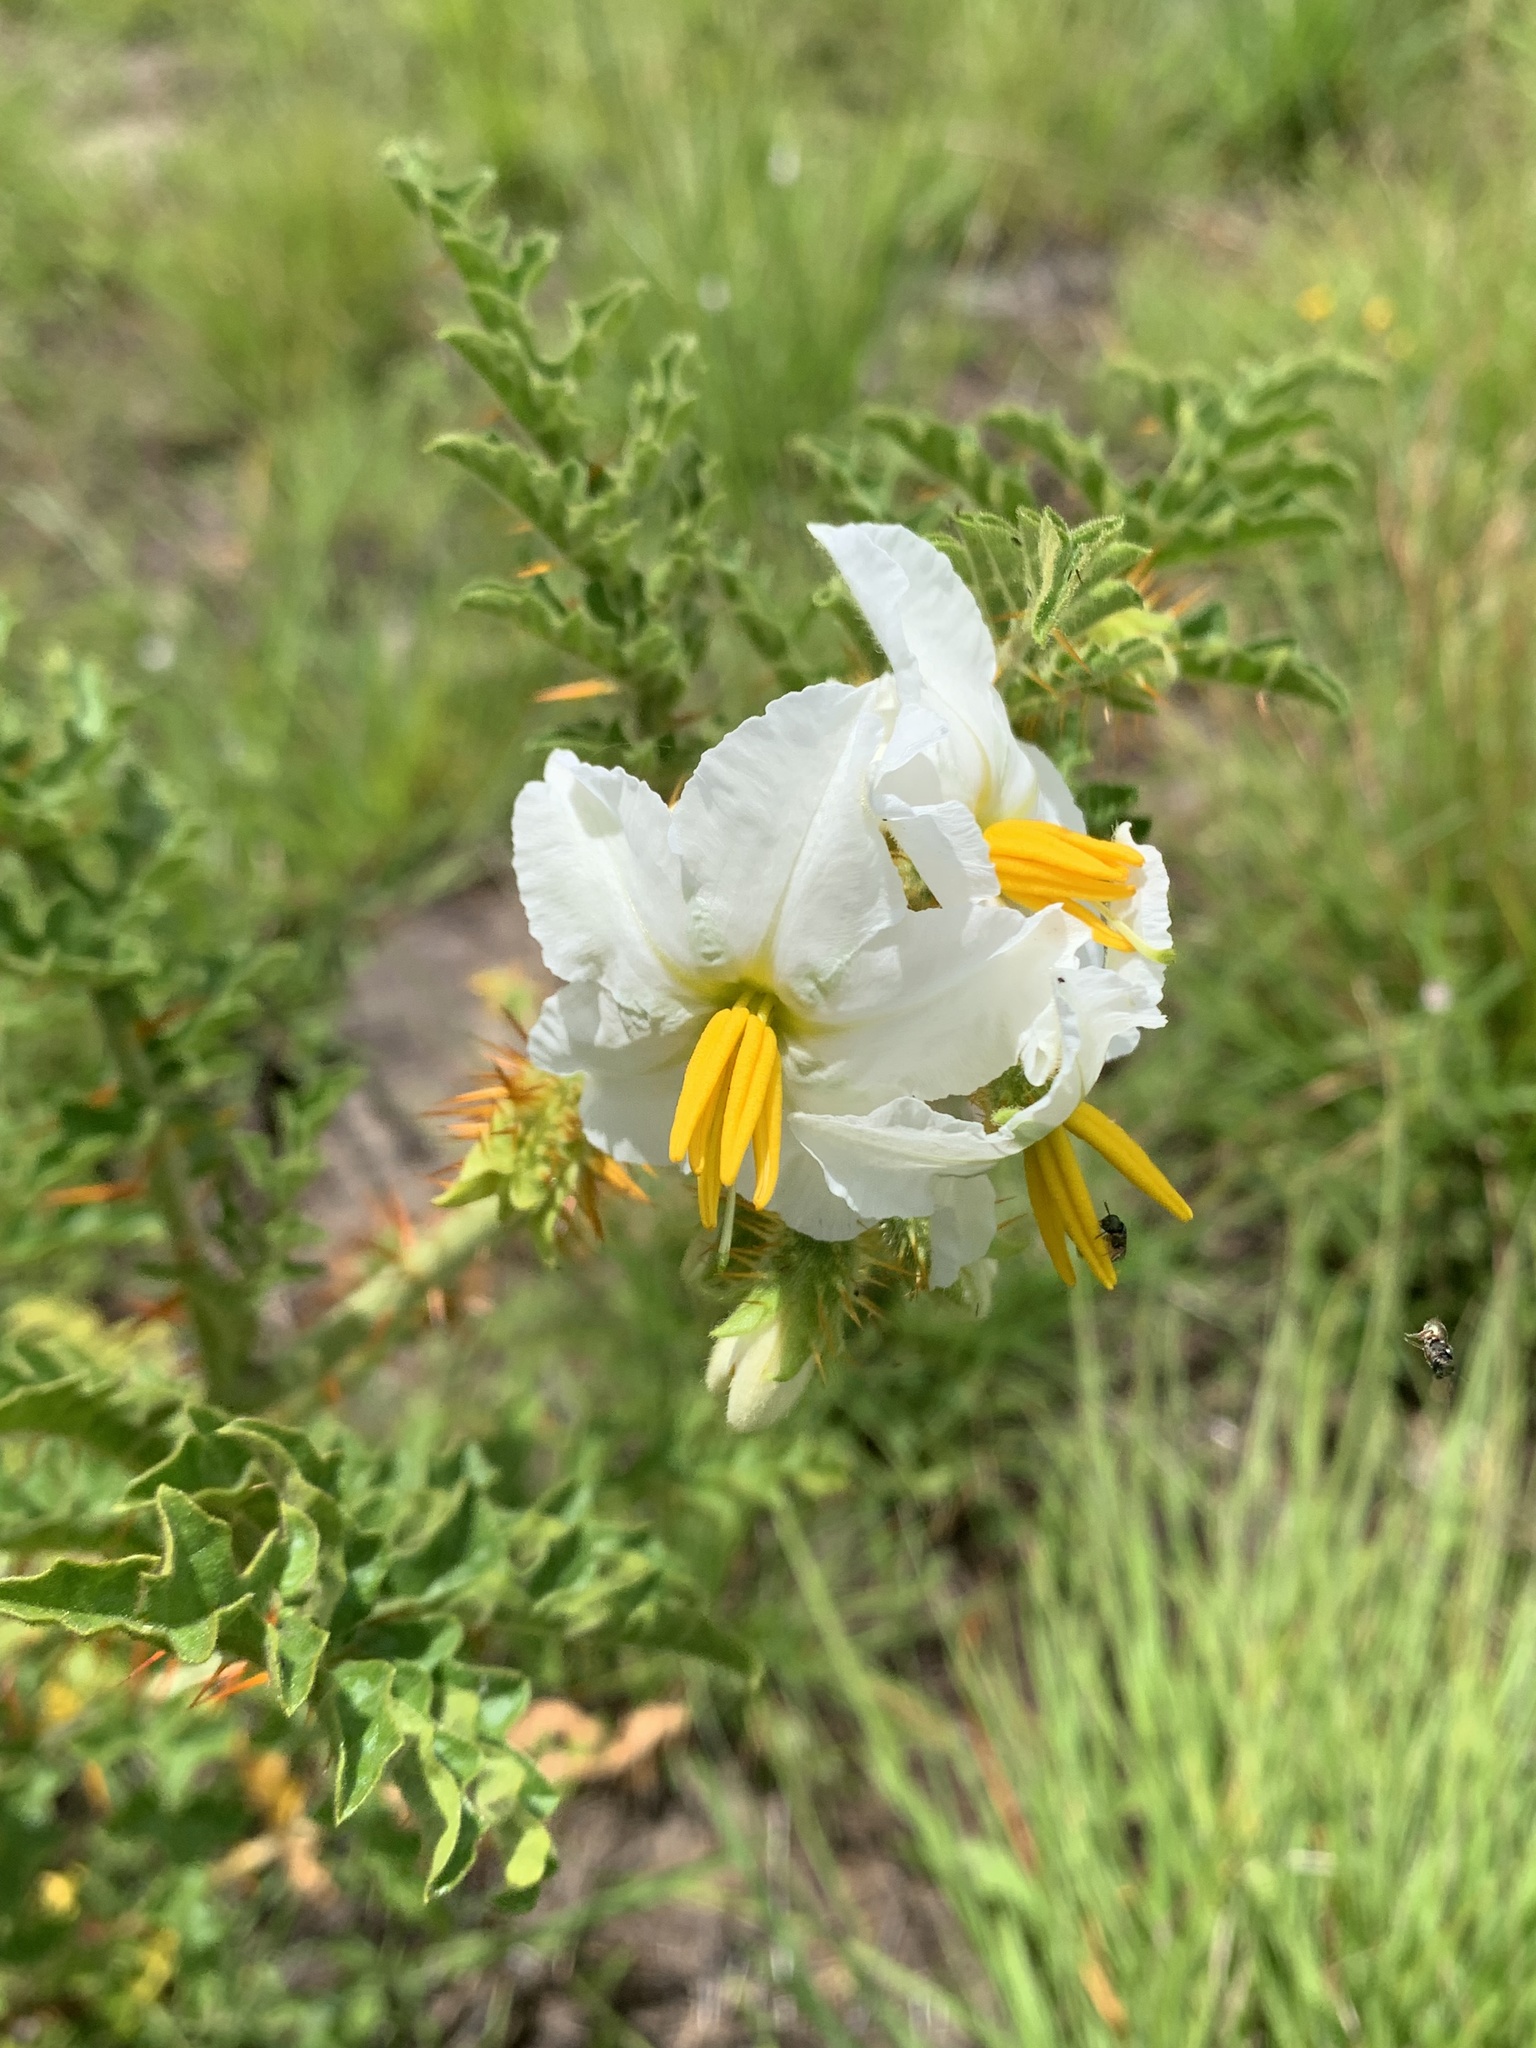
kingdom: Plantae
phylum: Tracheophyta
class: Magnoliopsida
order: Solanales
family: Solanaceae
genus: Solanum
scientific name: Solanum sisymbriifolium
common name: Red buffalo-bur
